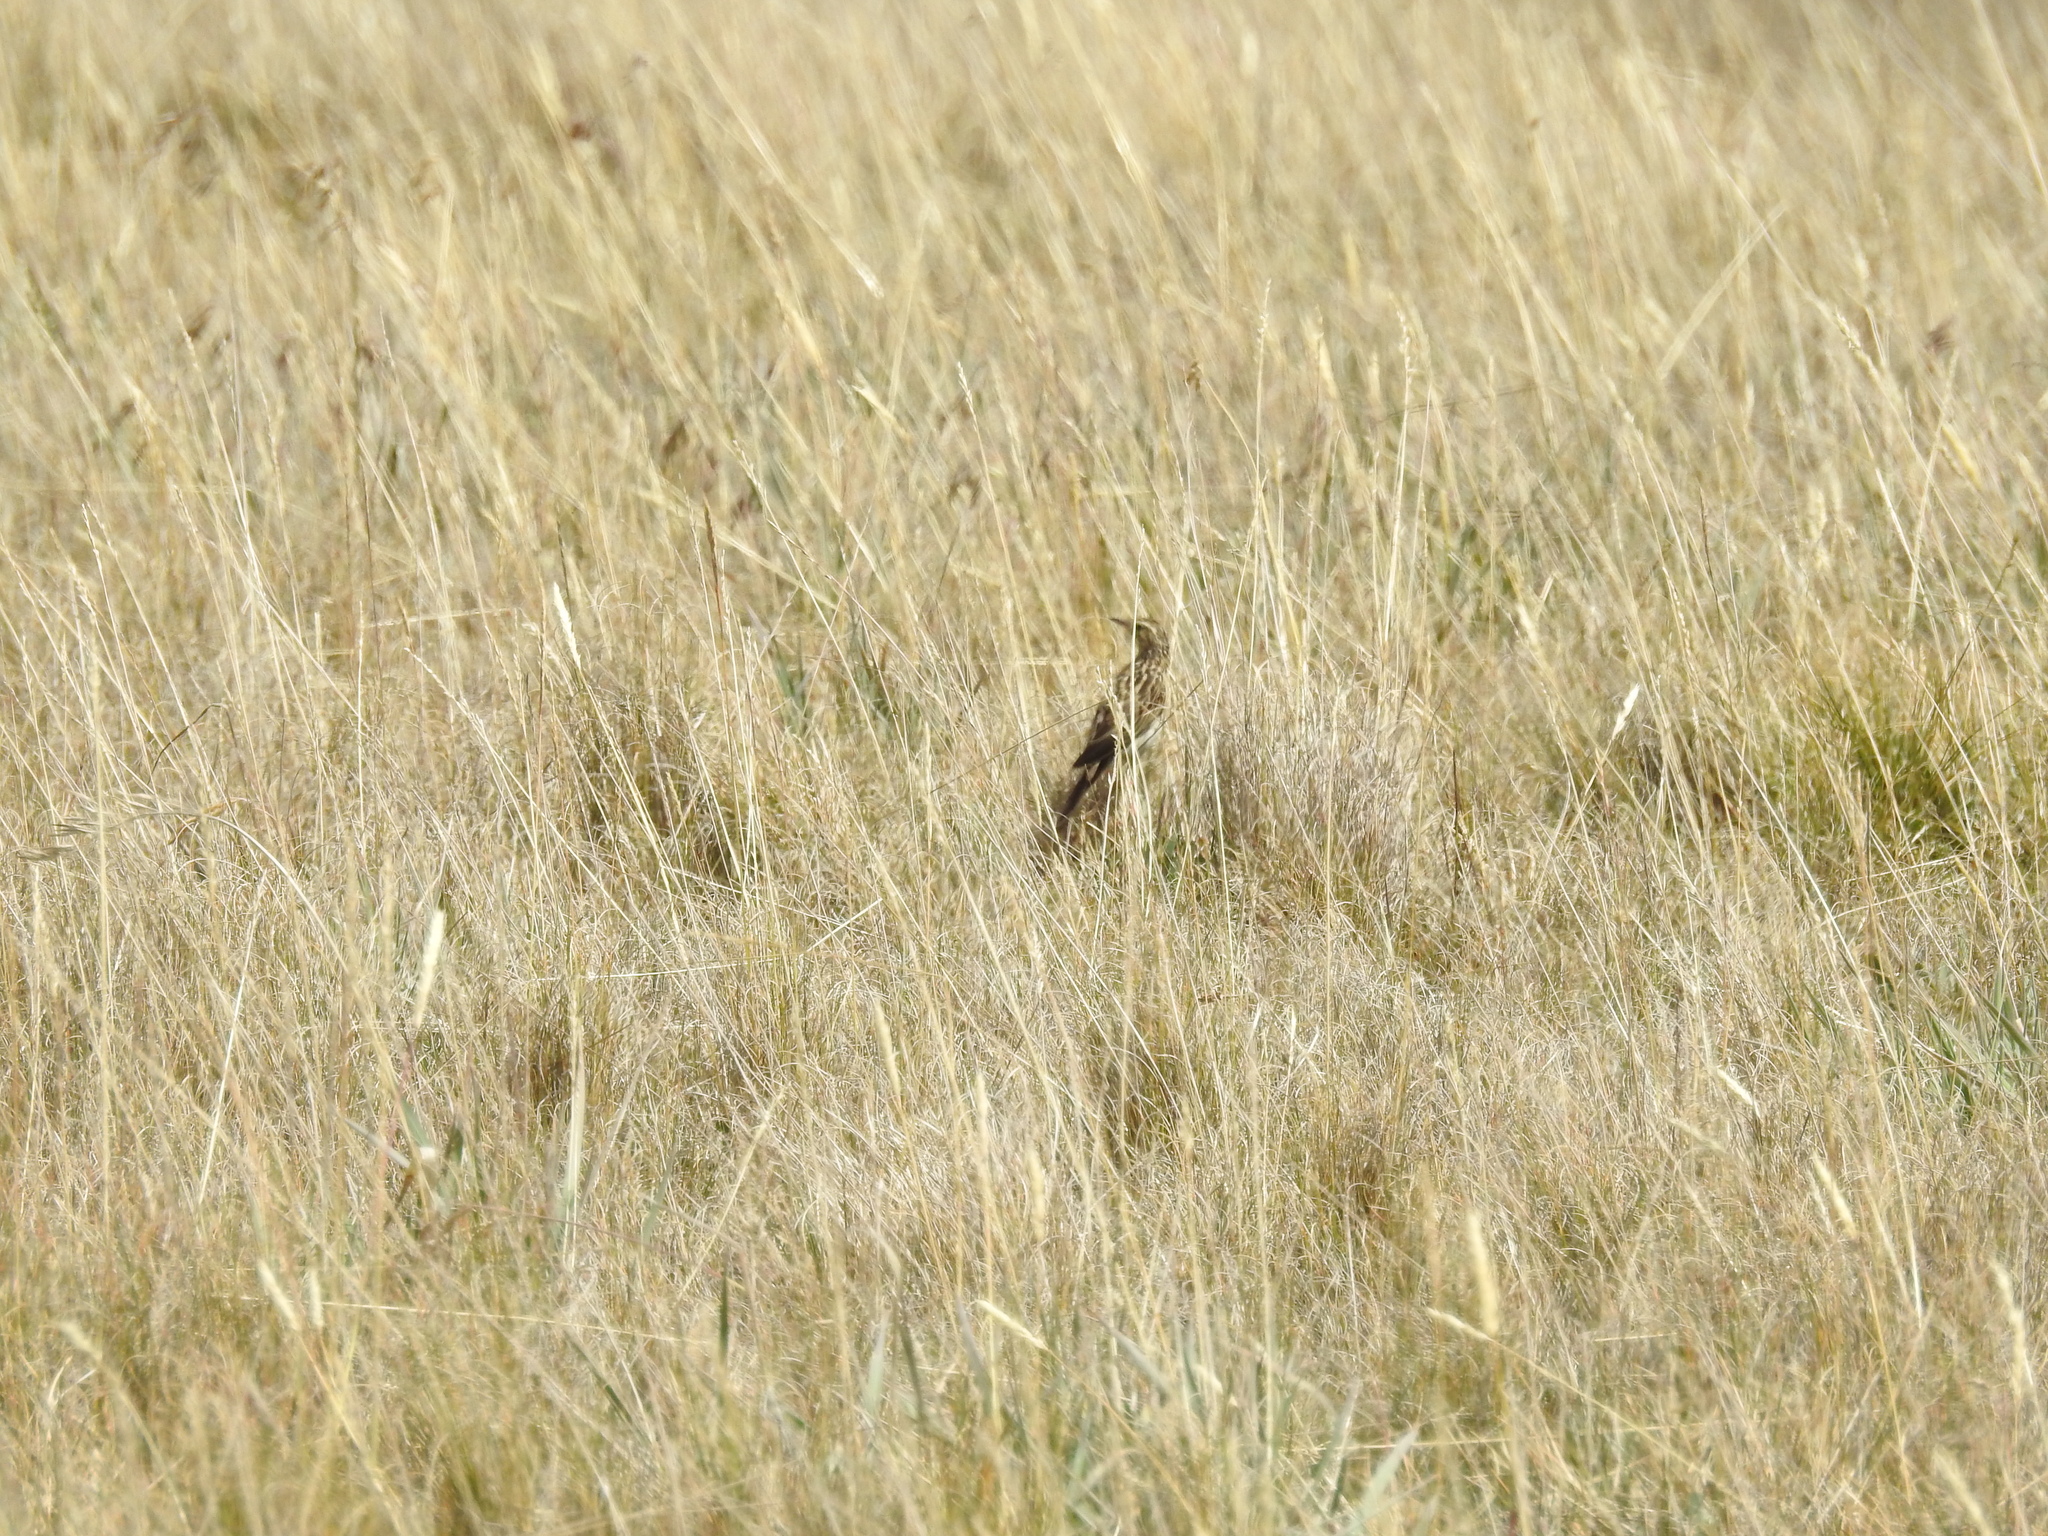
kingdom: Animalia
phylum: Chordata
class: Aves
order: Passeriformes
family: Motacillidae
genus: Anthus
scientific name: Anthus bogotensis
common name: Paramo pipit
